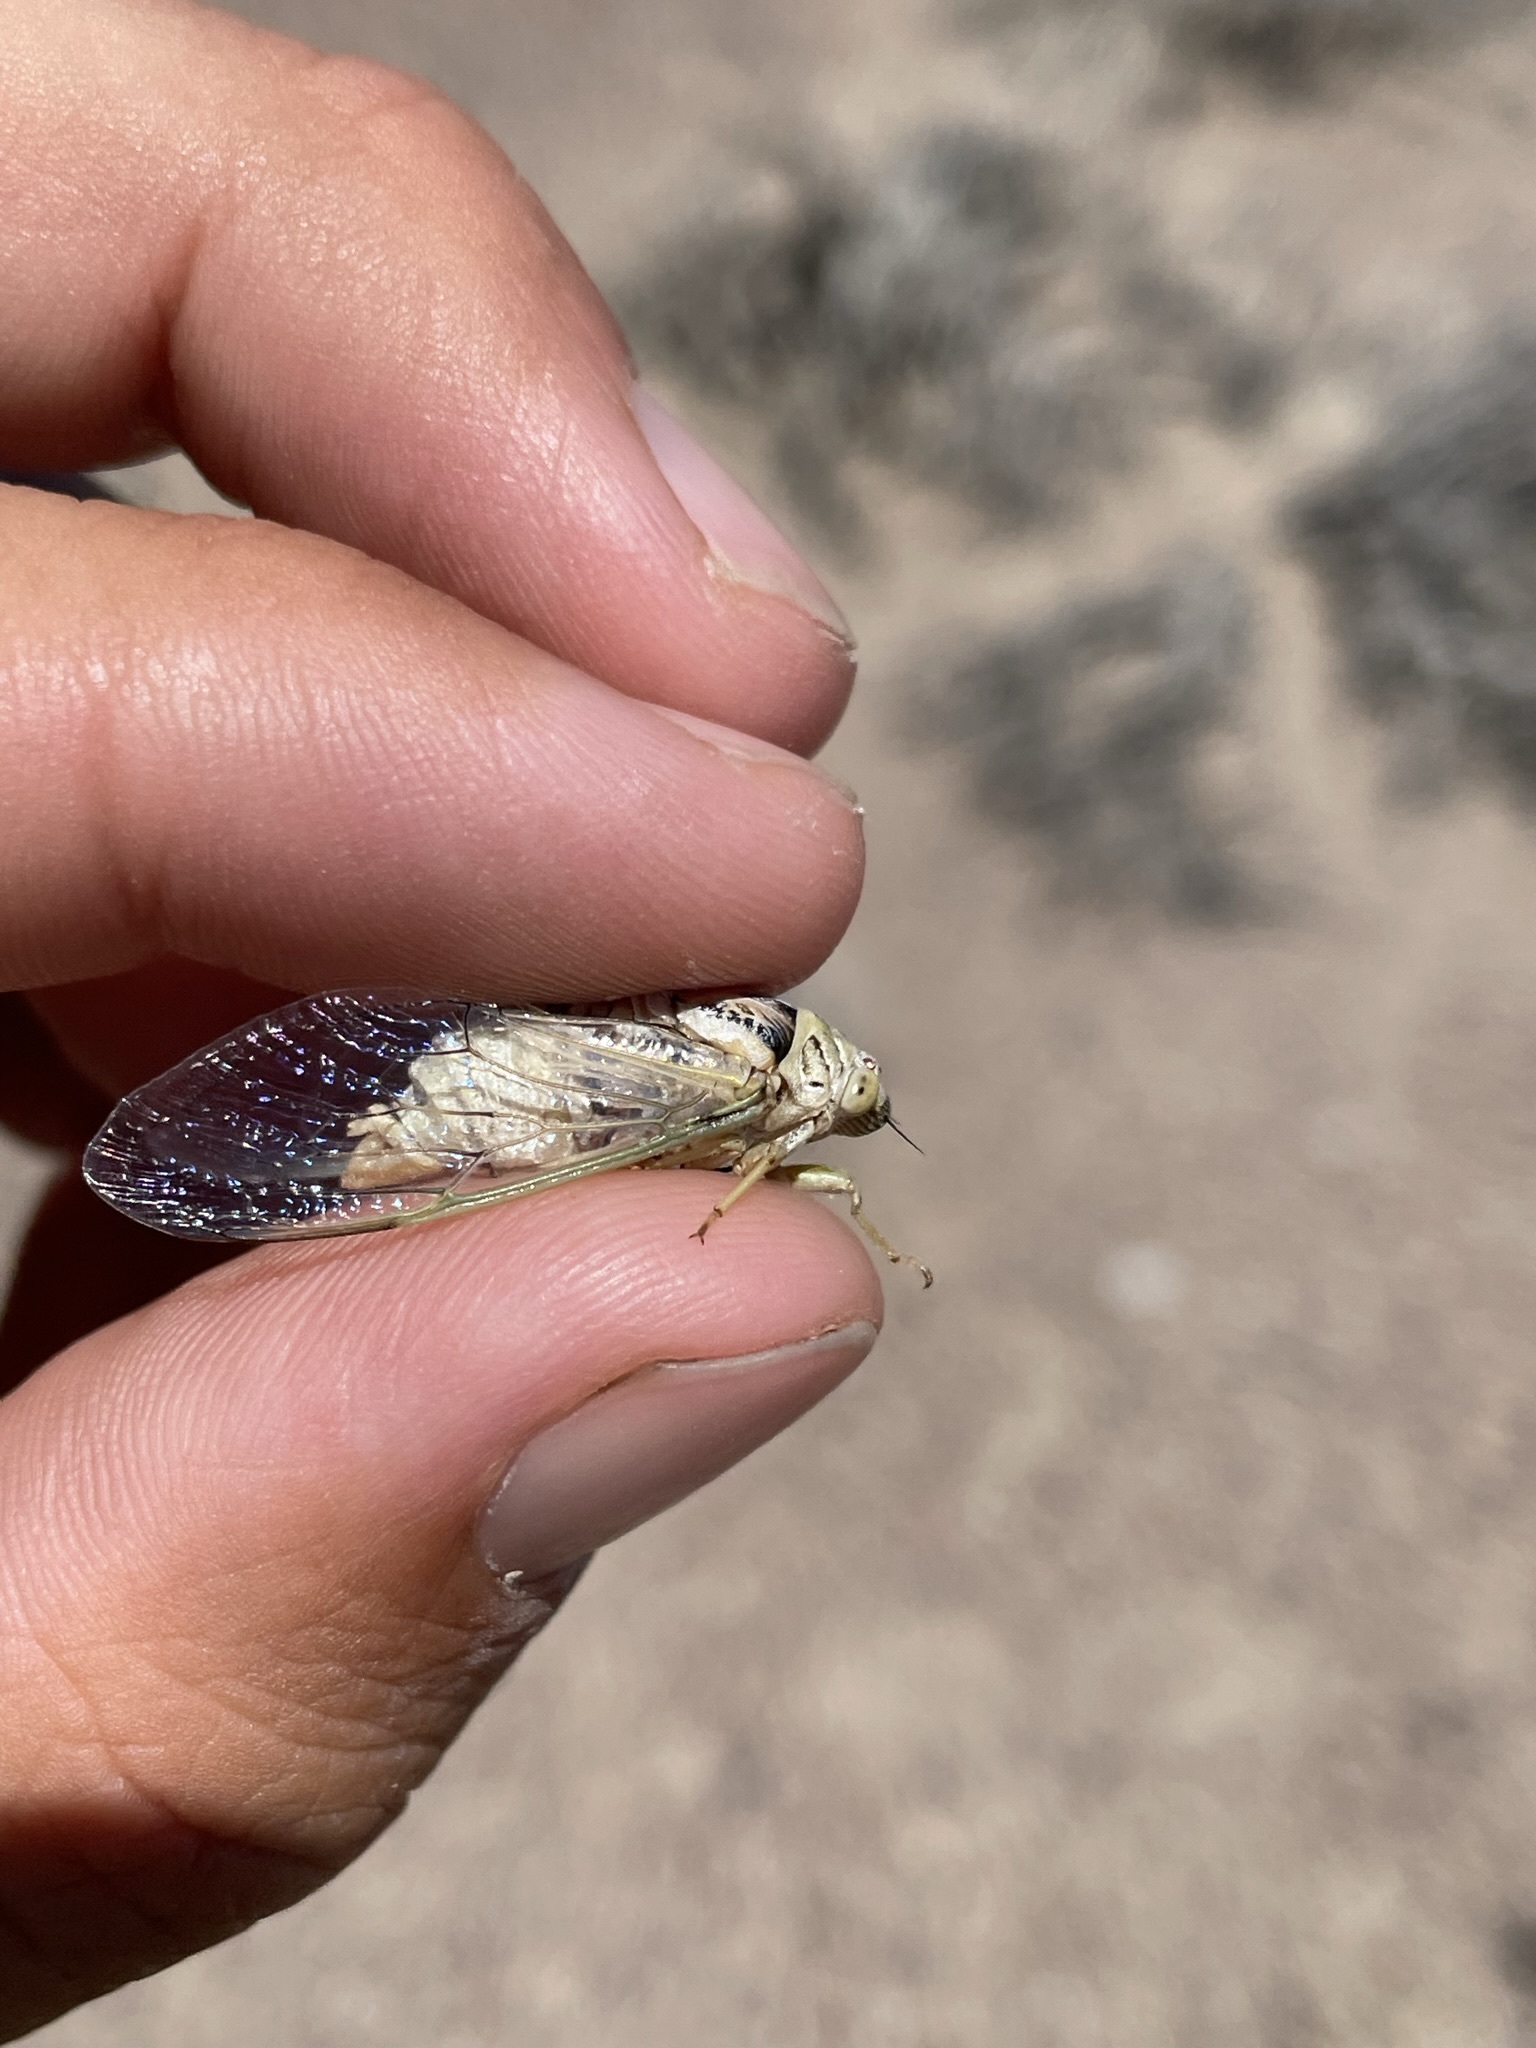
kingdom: Animalia
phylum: Arthropoda
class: Insecta
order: Hemiptera
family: Cicadidae
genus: Okanagodes
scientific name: Okanagodes gracilis
